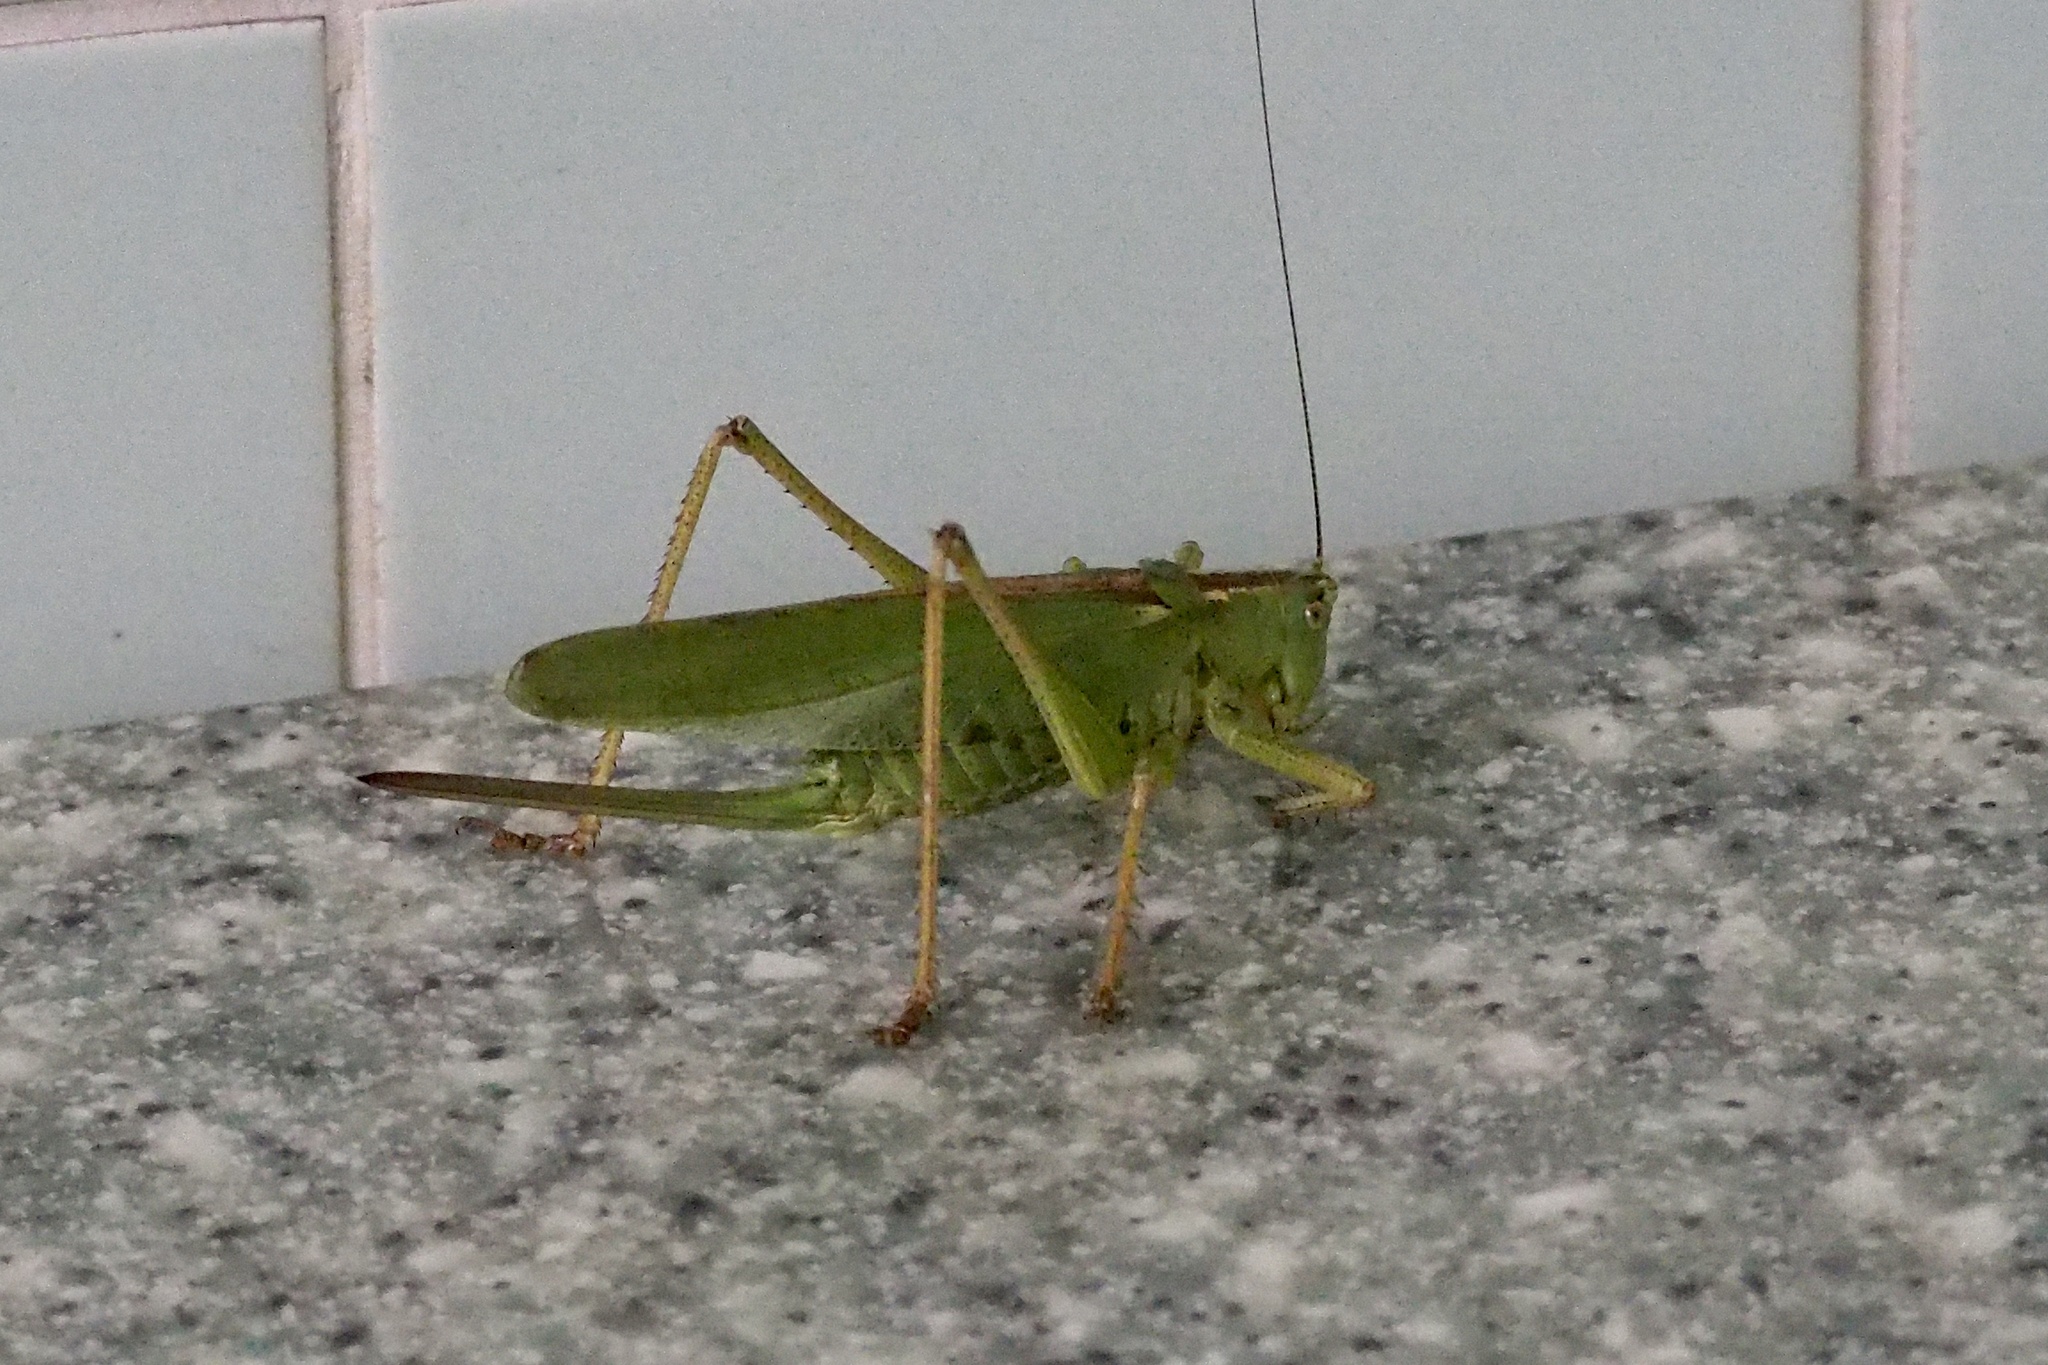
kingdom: Animalia
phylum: Arthropoda
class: Insecta
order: Orthoptera
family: Tettigoniidae
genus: Tettigonia
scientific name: Tettigonia orientalis
